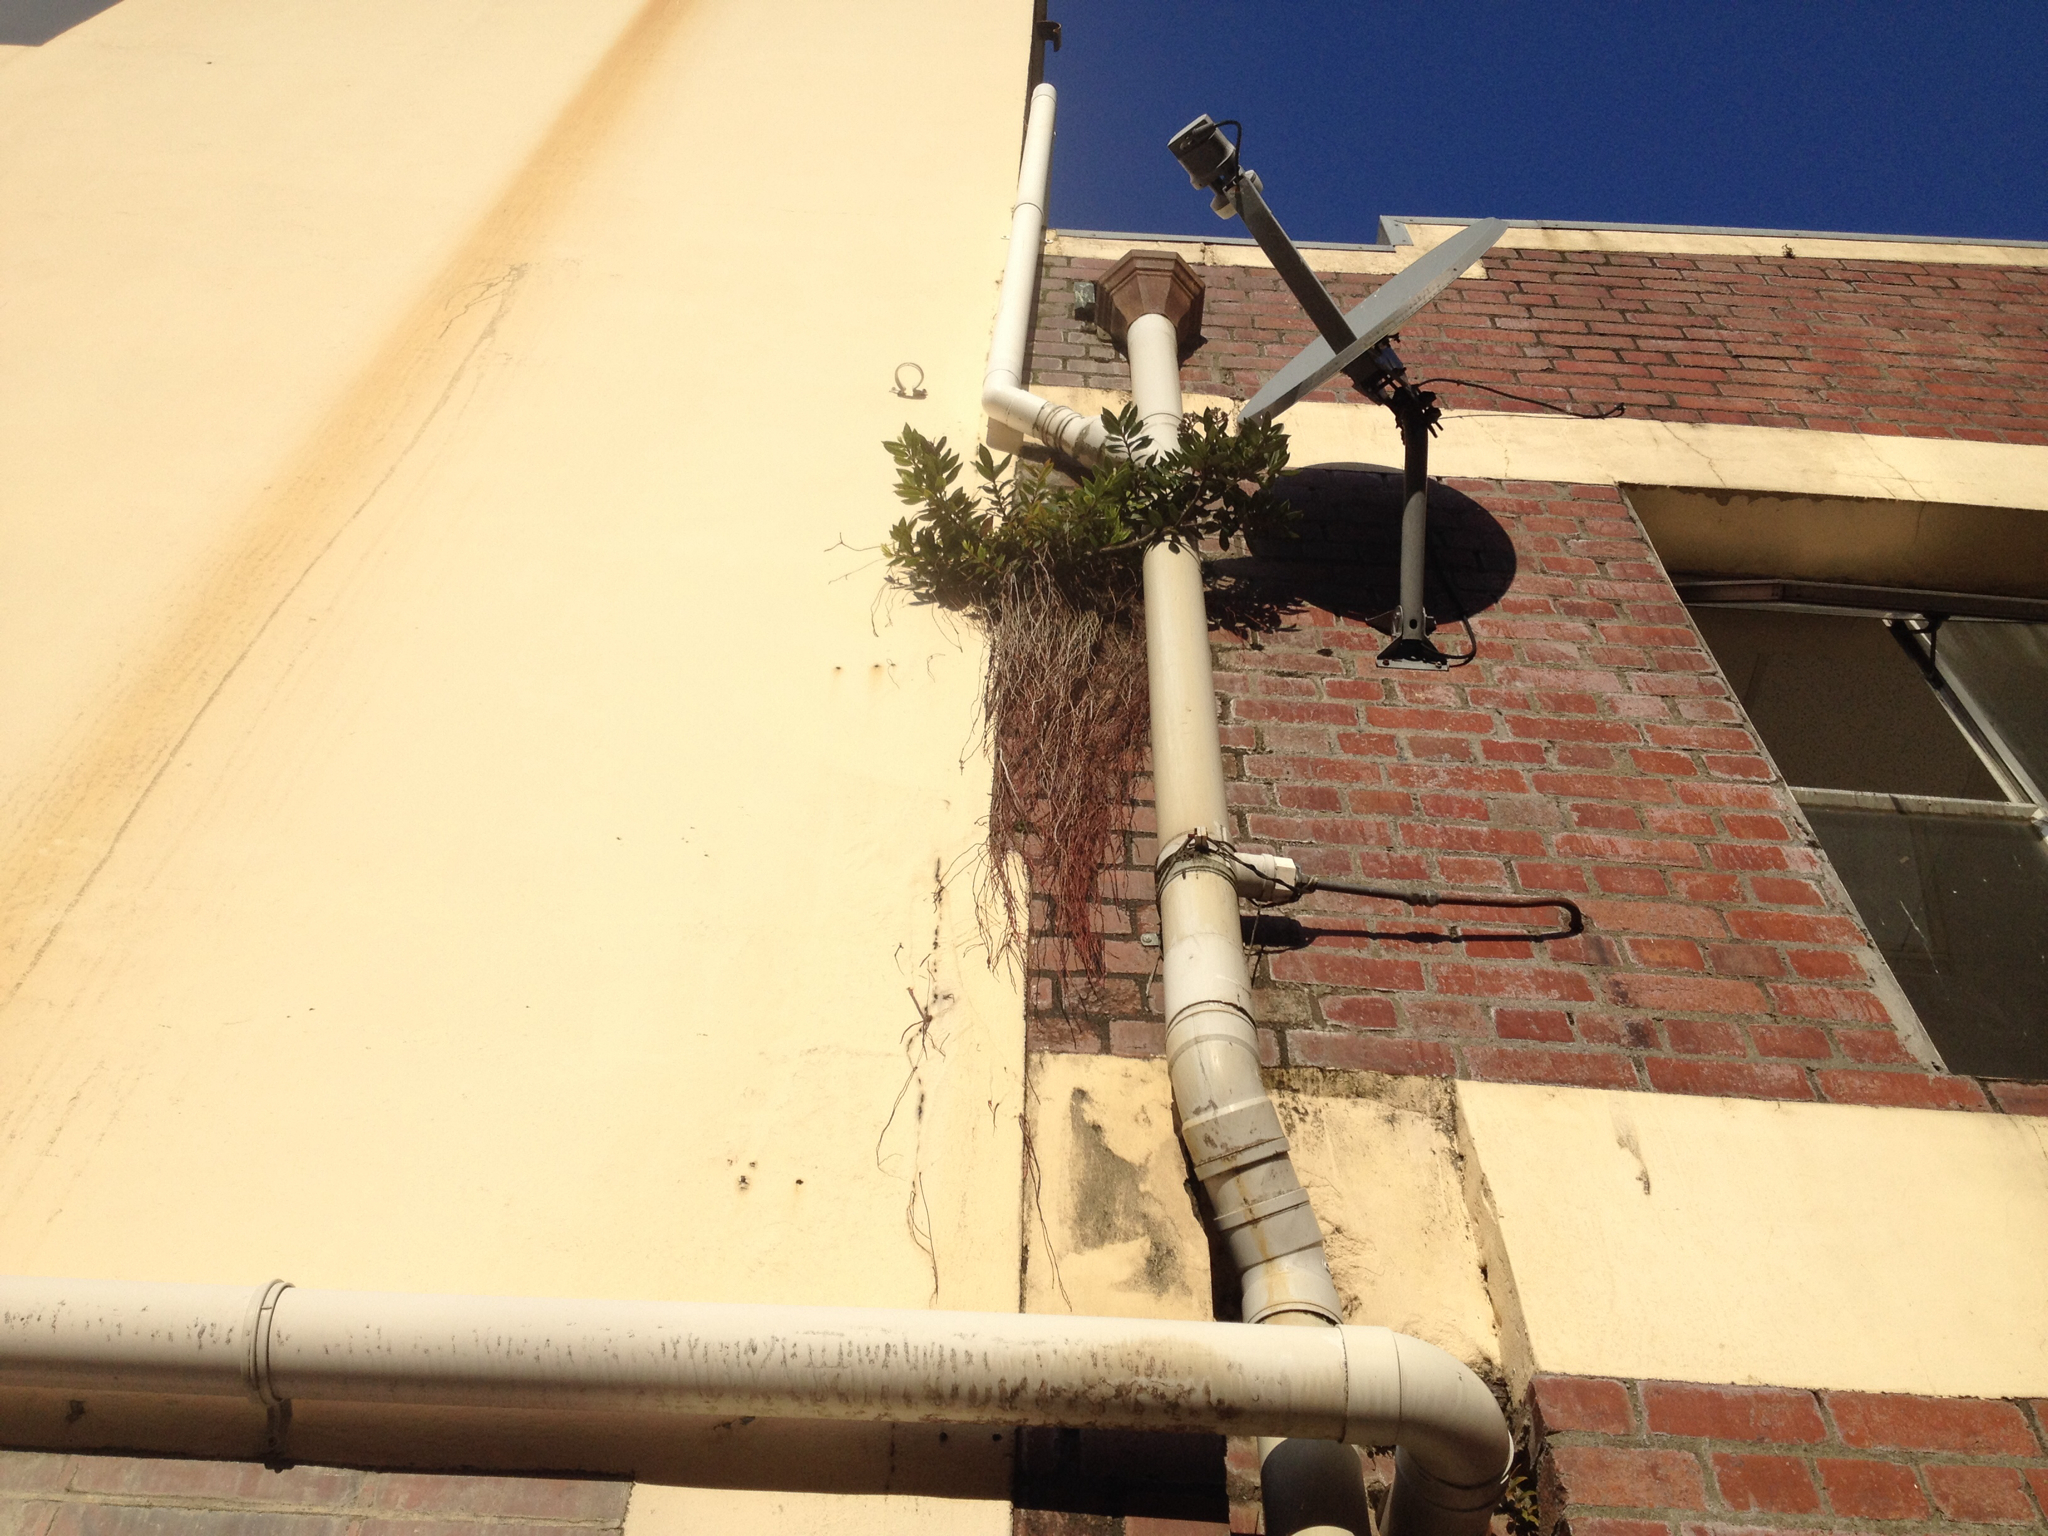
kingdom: Plantae
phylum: Tracheophyta
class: Magnoliopsida
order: Myrtales
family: Myrtaceae
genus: Metrosideros
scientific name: Metrosideros excelsa
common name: New zealand christmastree
